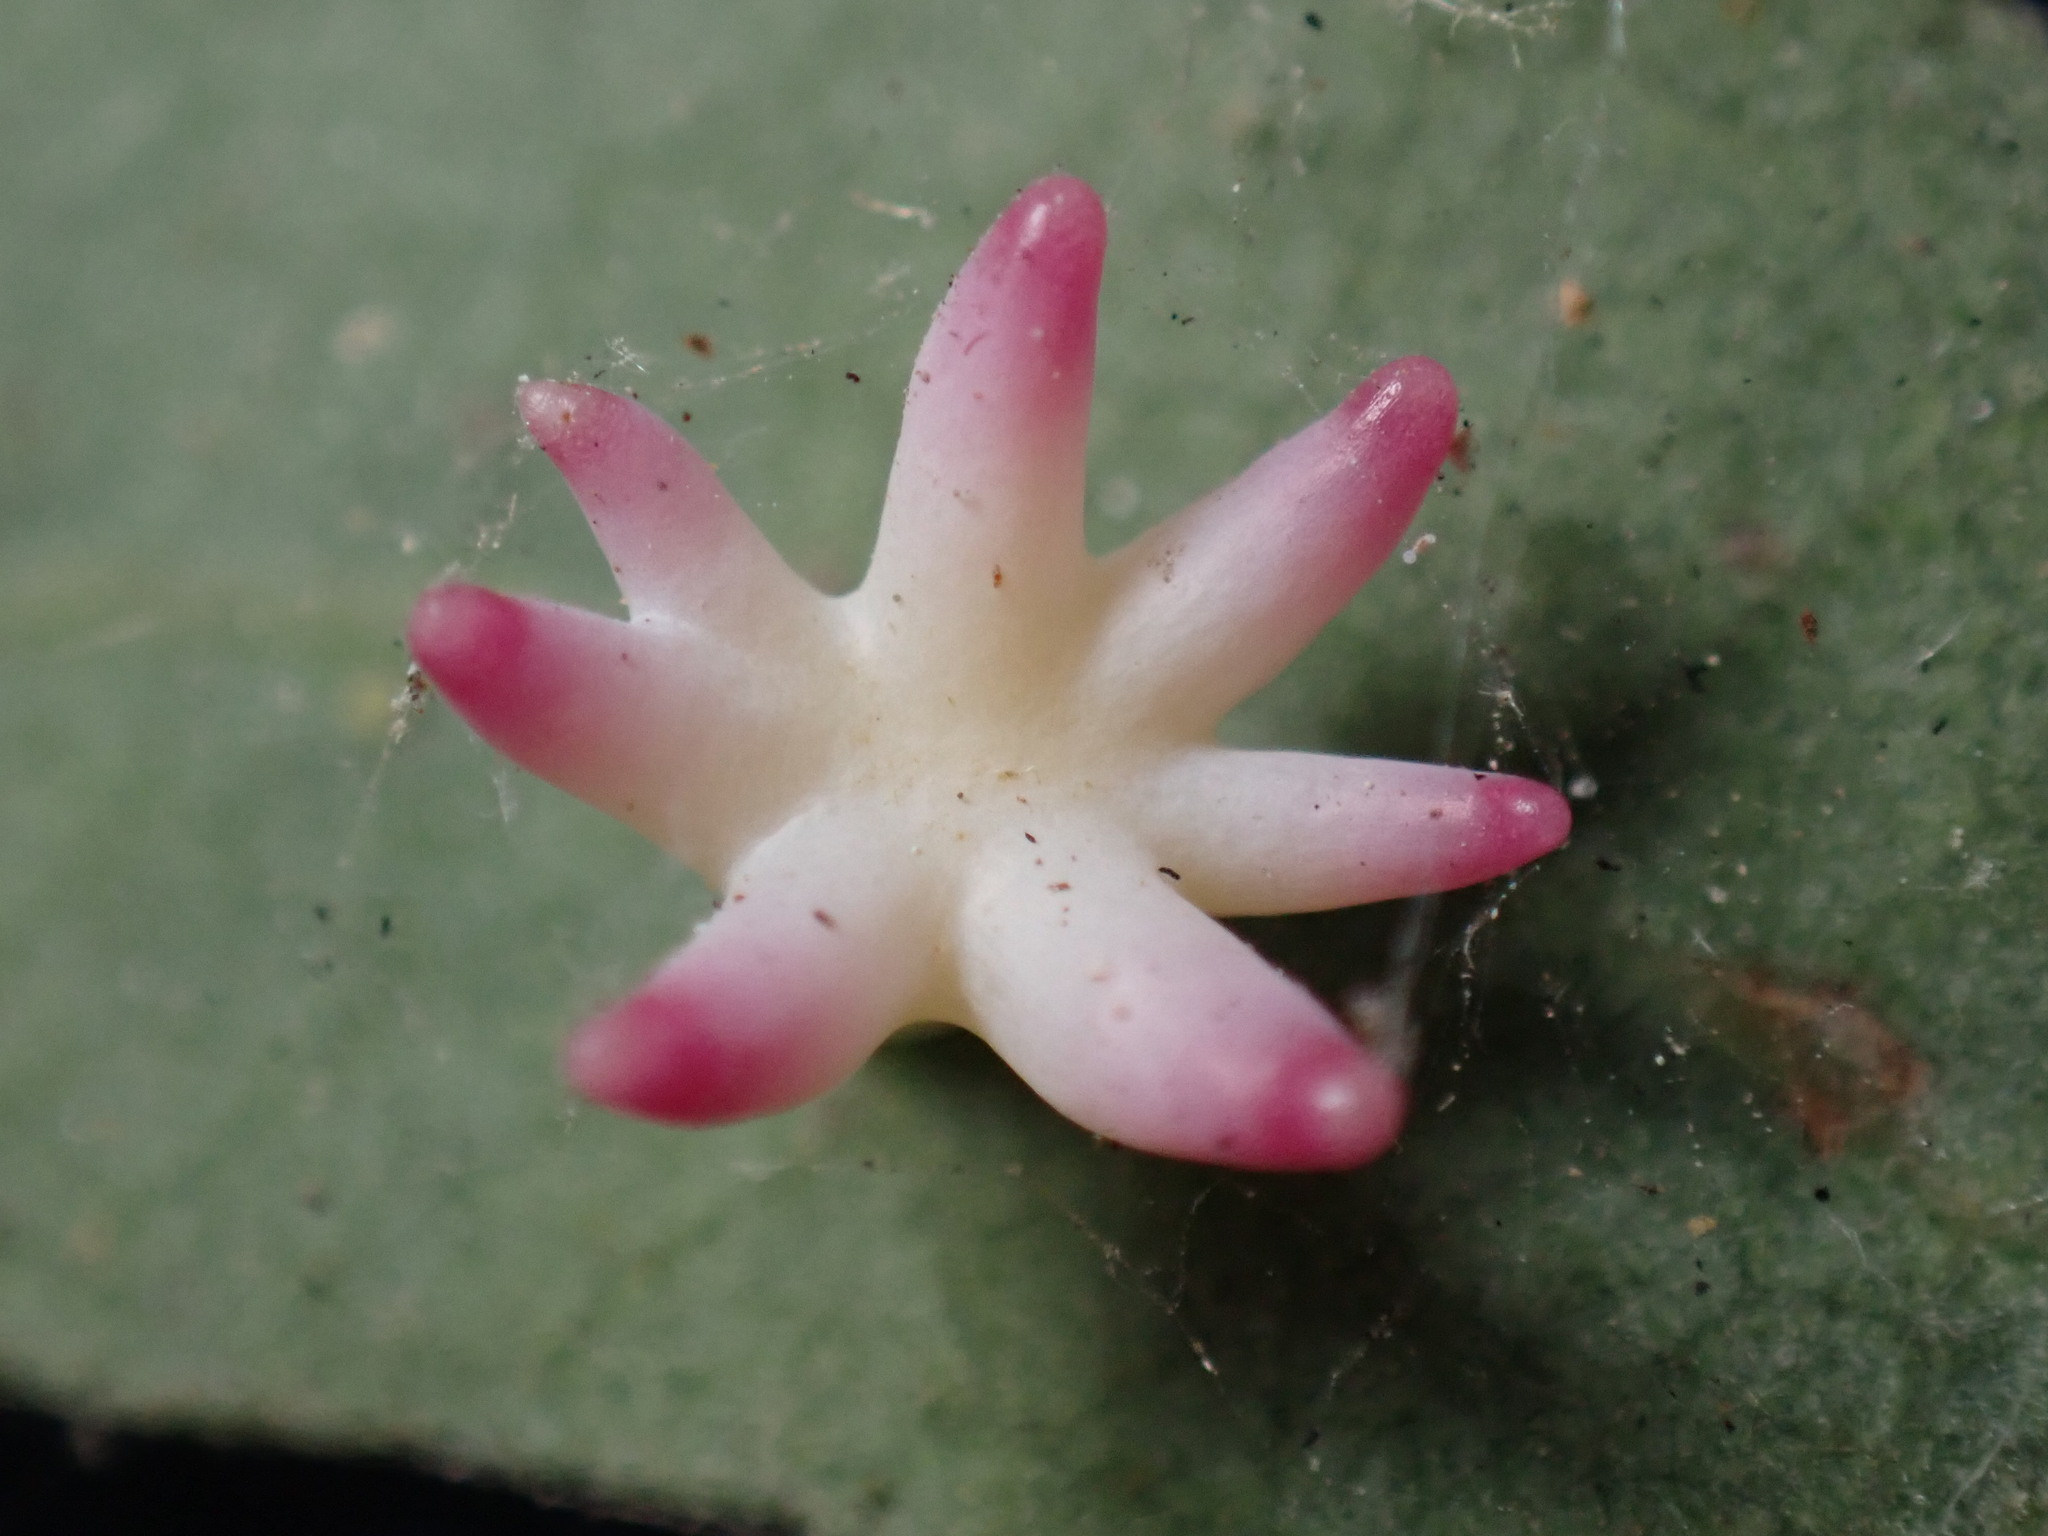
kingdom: Animalia
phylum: Arthropoda
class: Insecta
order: Hymenoptera
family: Cynipidae
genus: Cynips
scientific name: Cynips douglasi
